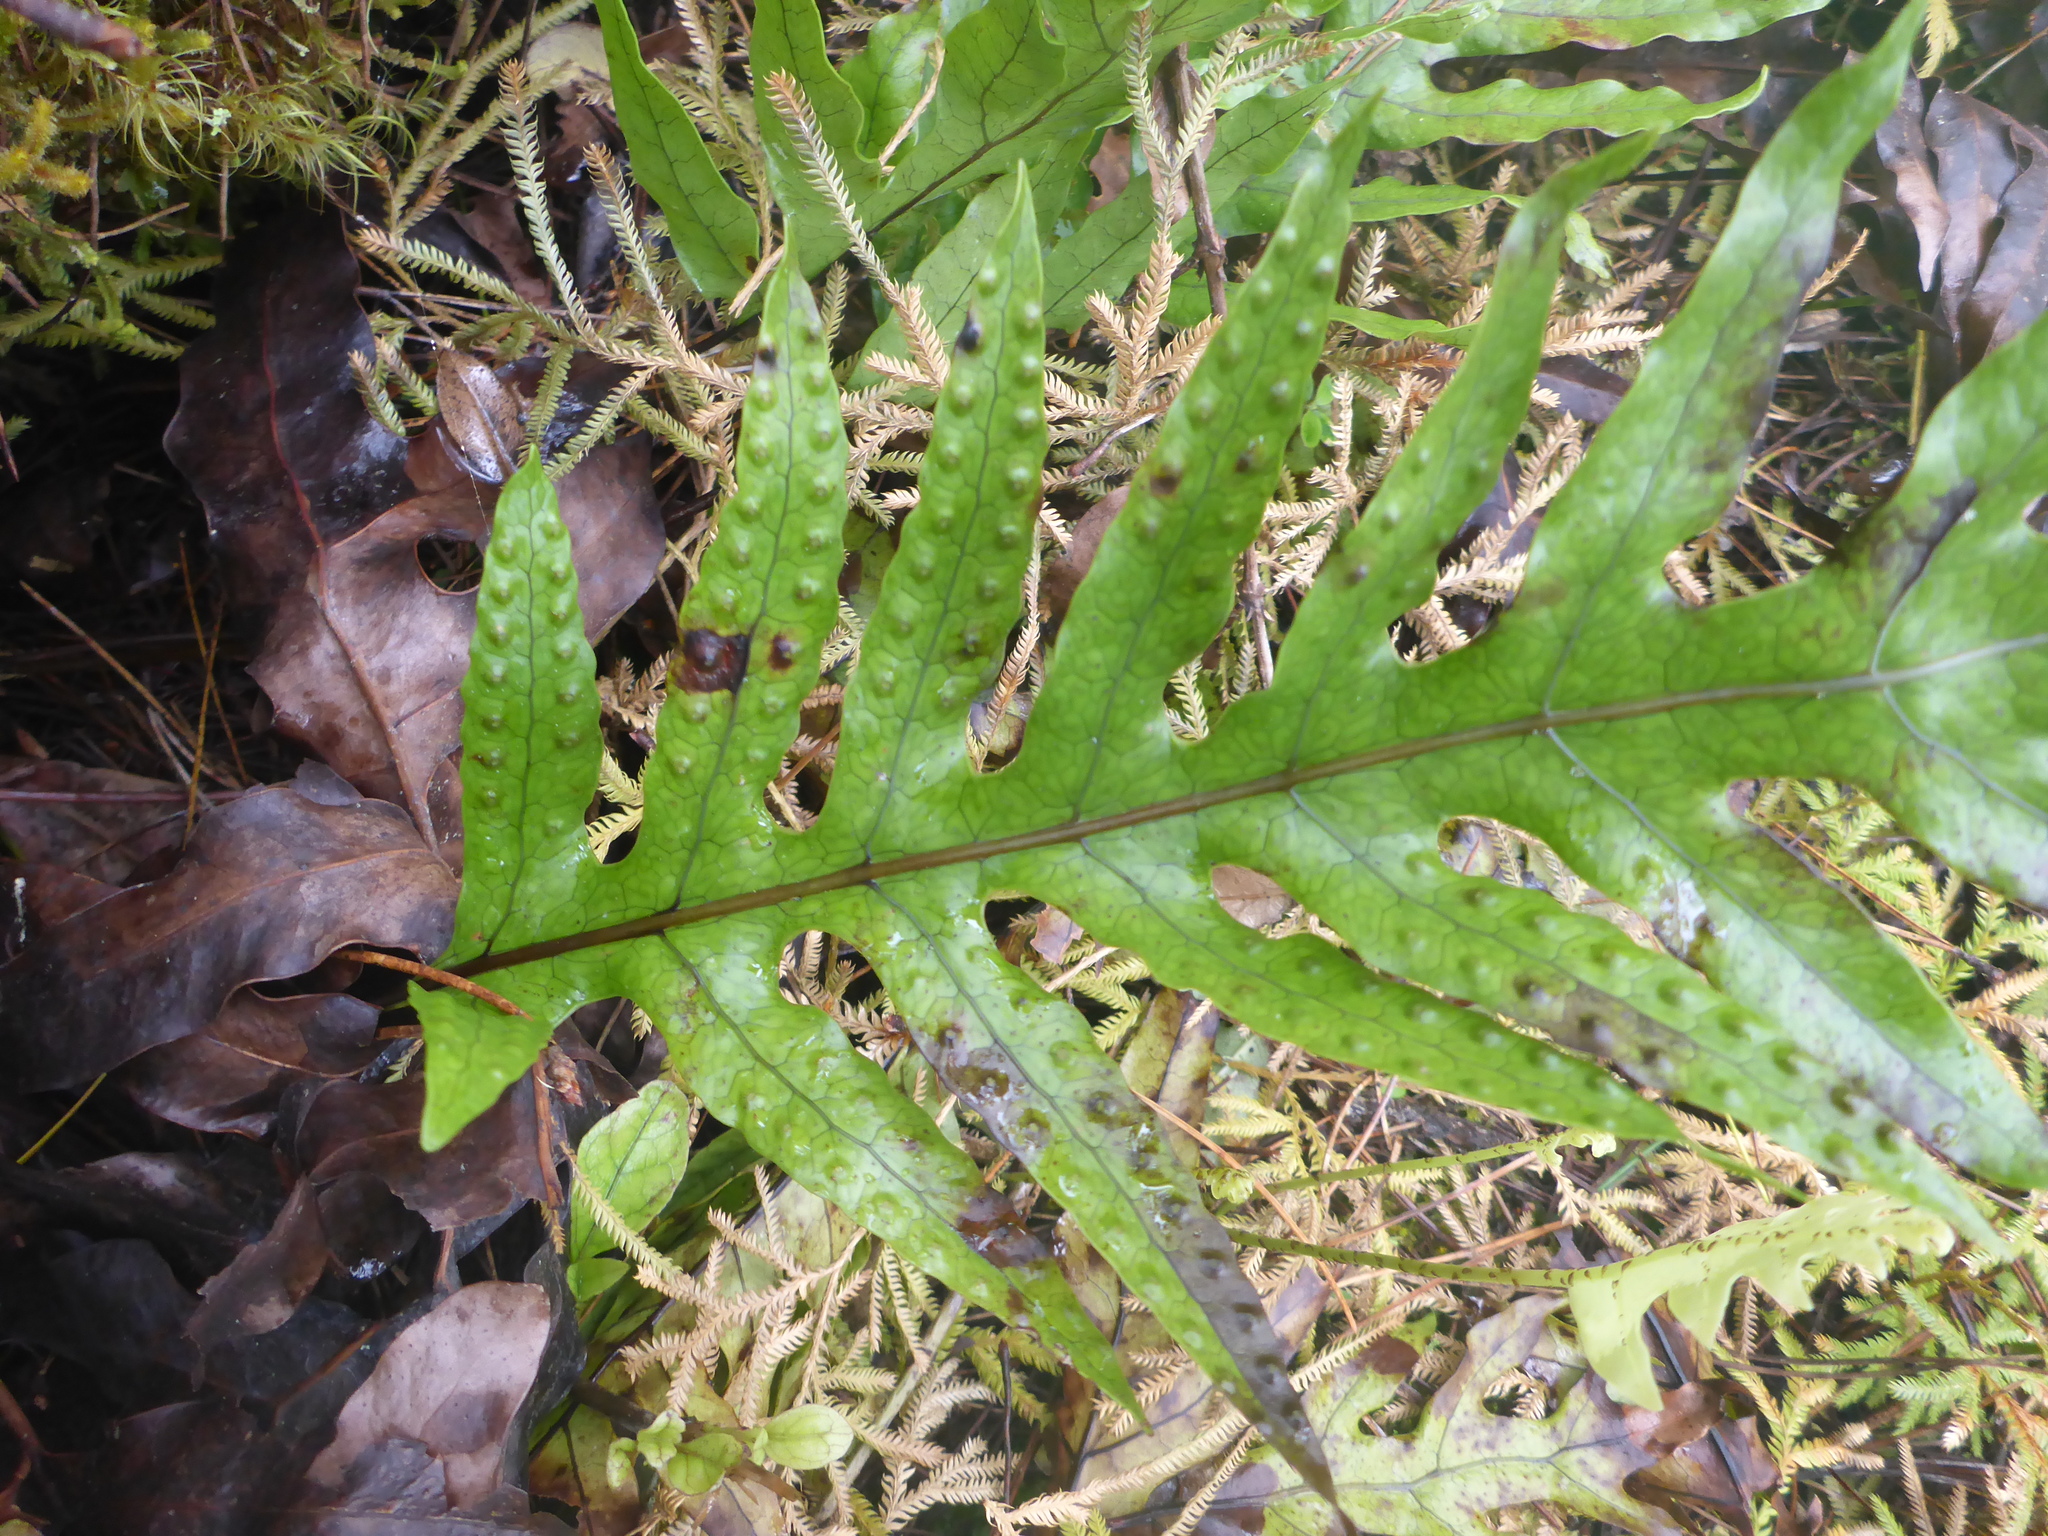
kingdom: Plantae
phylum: Tracheophyta
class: Polypodiopsida
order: Polypodiales
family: Polypodiaceae
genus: Lecanopteris
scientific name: Lecanopteris pustulata
